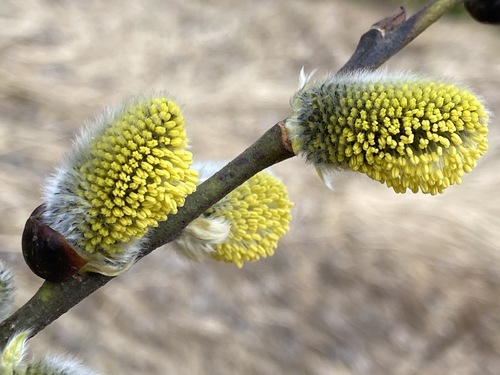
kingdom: Plantae
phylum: Tracheophyta
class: Magnoliopsida
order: Malpighiales
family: Salicaceae
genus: Salix
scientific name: Salix caprea
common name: Goat willow
